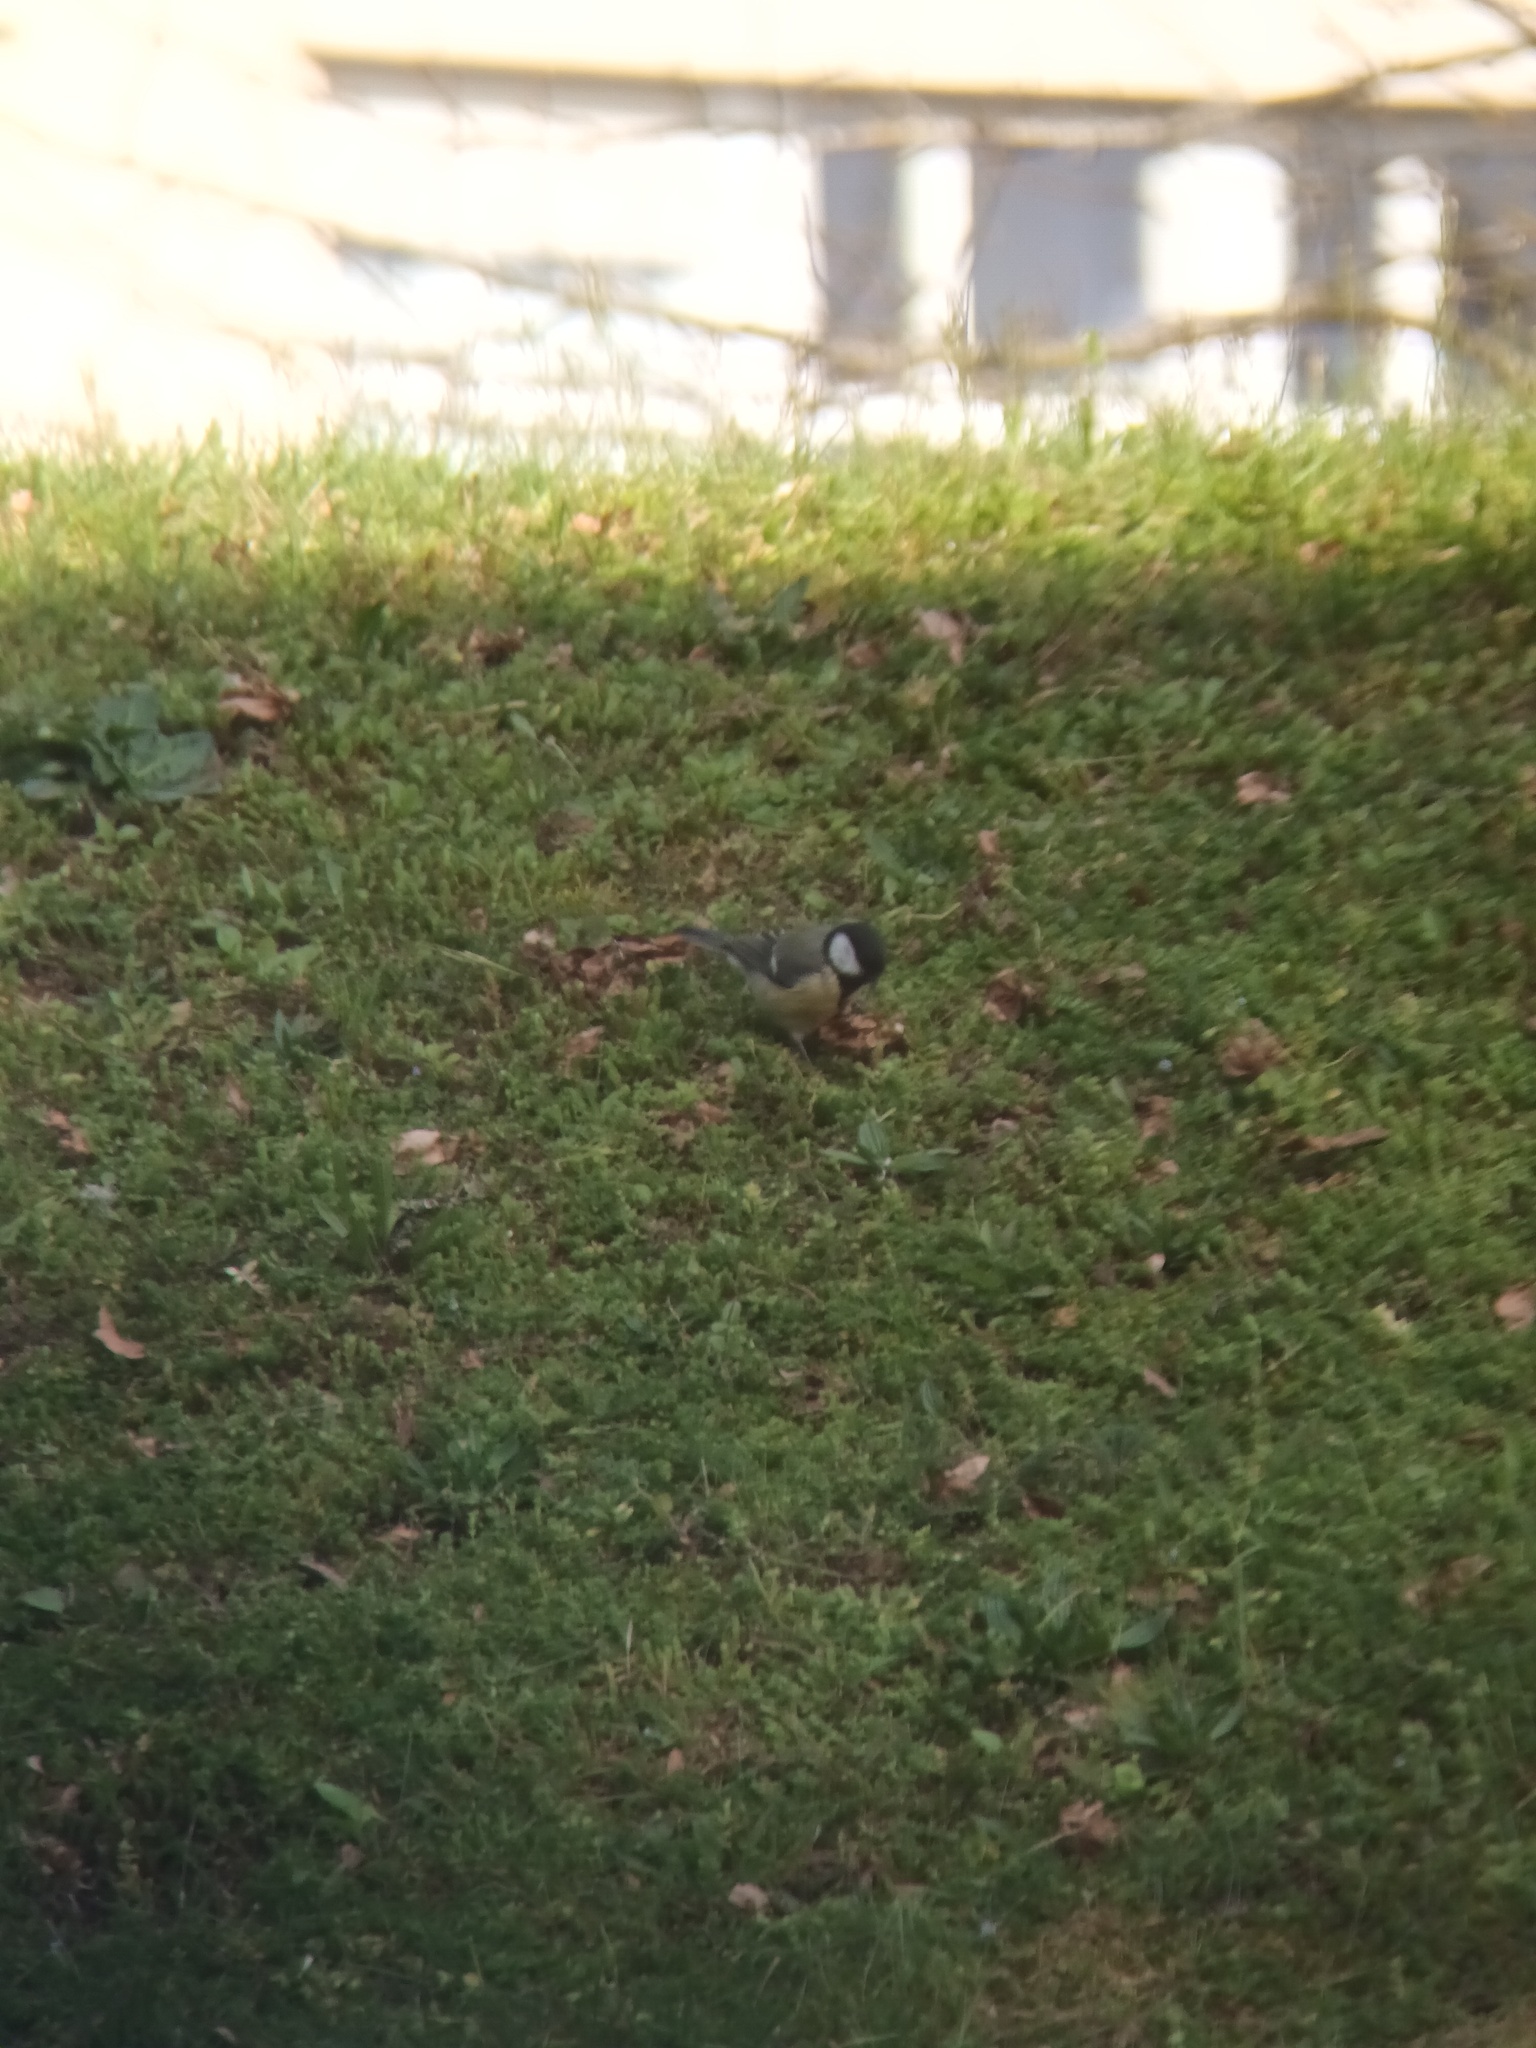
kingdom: Animalia
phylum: Chordata
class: Aves
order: Passeriformes
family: Paridae
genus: Parus
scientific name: Parus major
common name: Great tit
